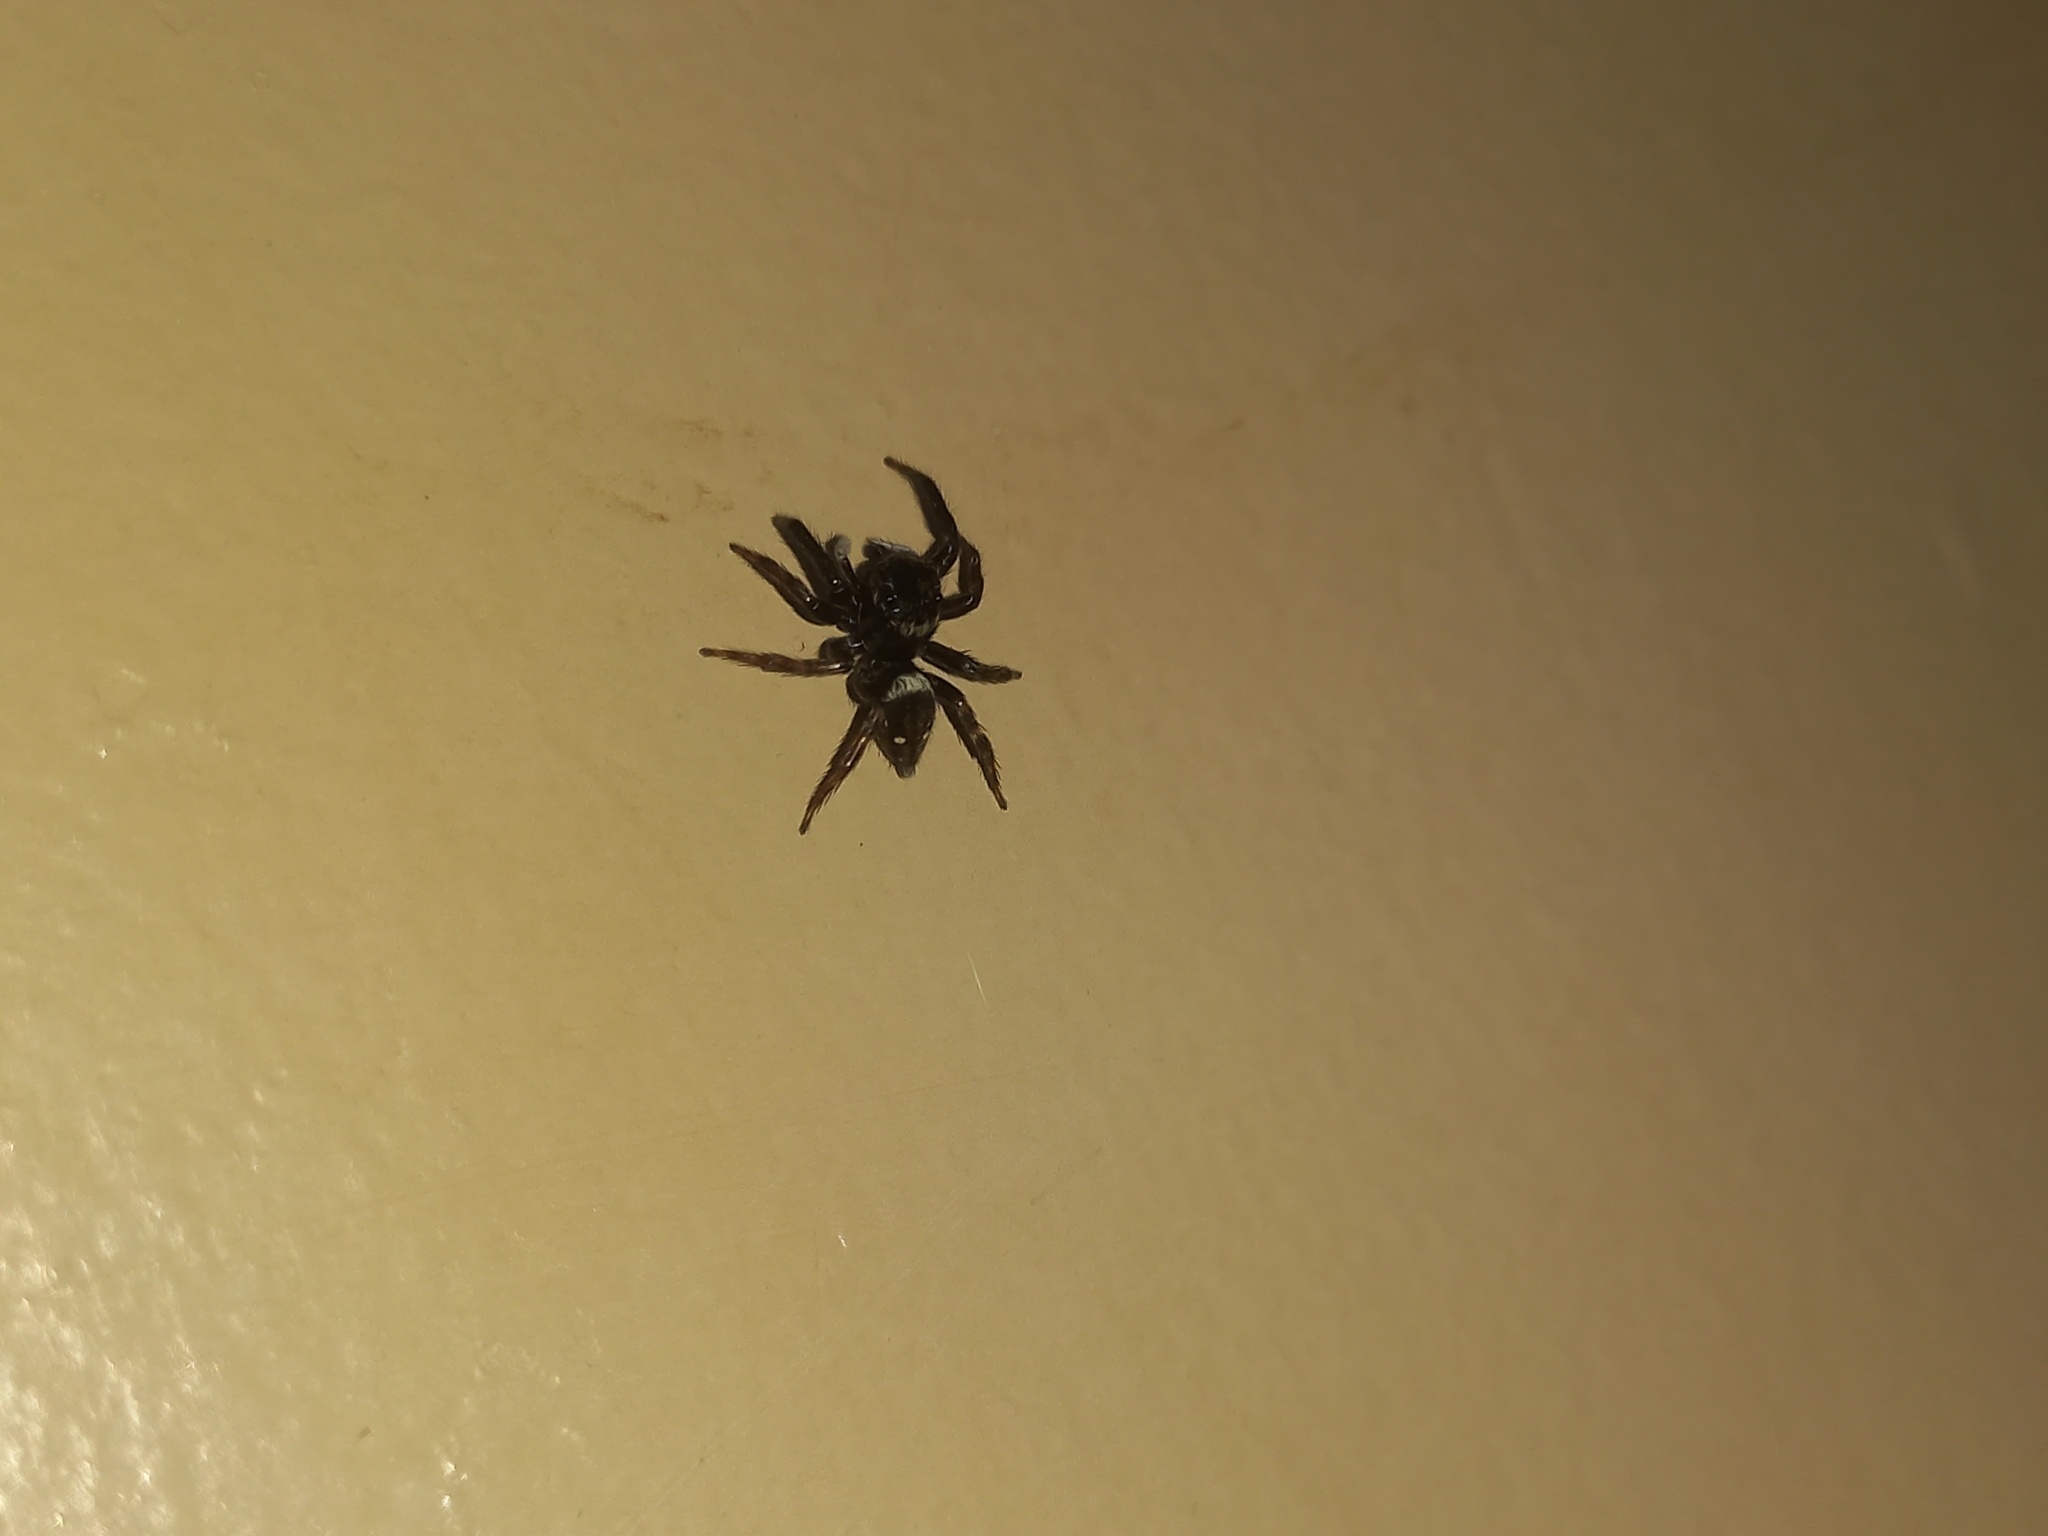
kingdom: Animalia
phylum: Arthropoda
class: Arachnida
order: Araneae
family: Salticidae
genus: Hasarius
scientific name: Hasarius adansoni
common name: Jumping spider
